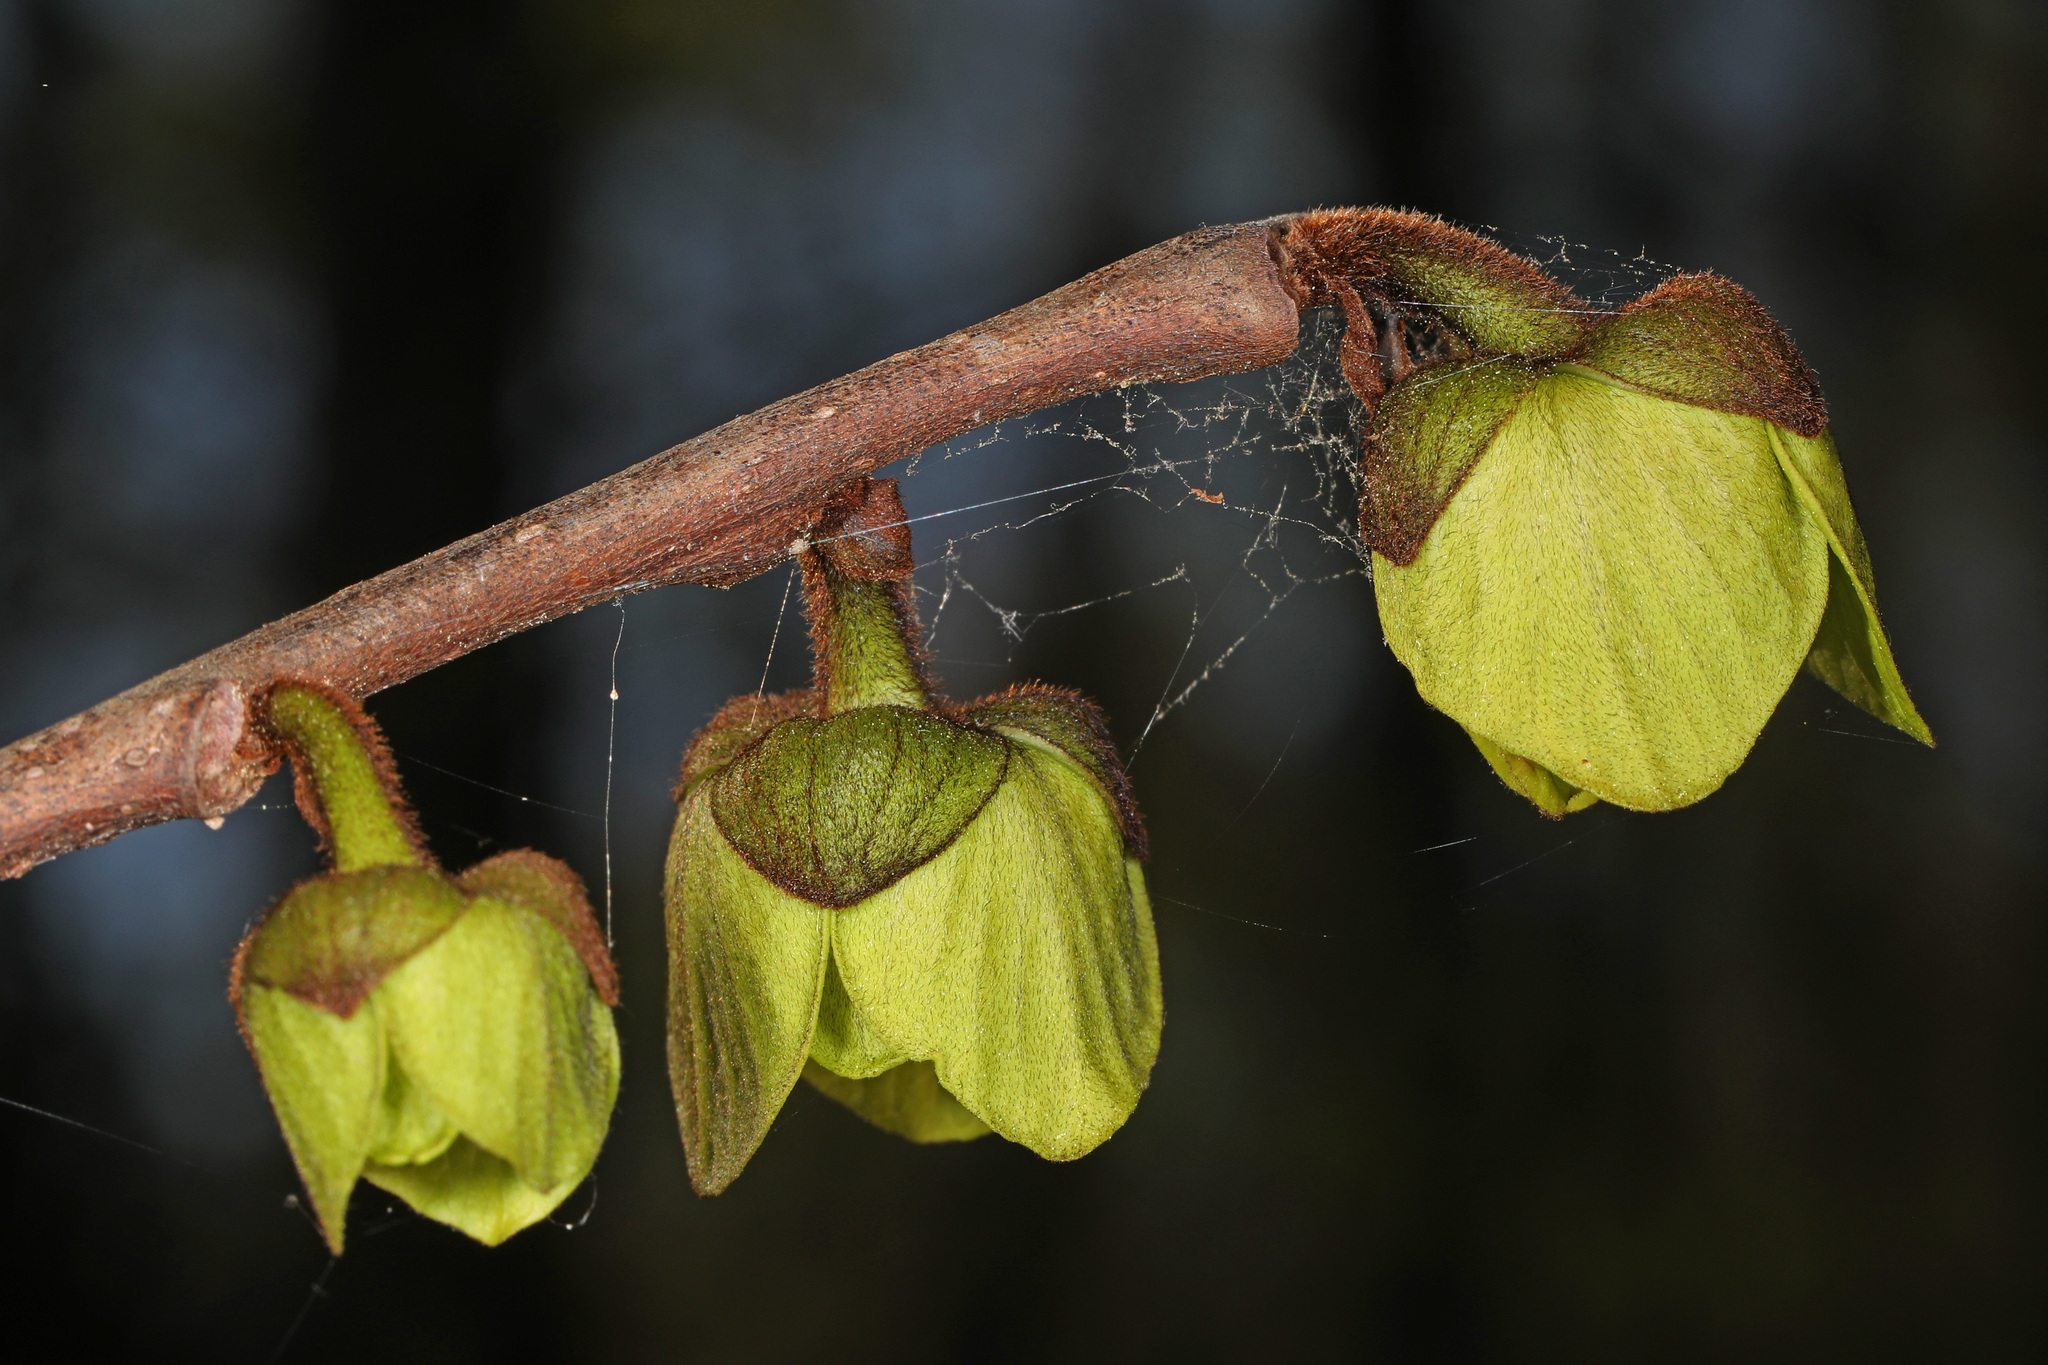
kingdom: Plantae
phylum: Tracheophyta
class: Magnoliopsida
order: Magnoliales
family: Annonaceae
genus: Asimina
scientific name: Asimina triloba
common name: Dog-banana
